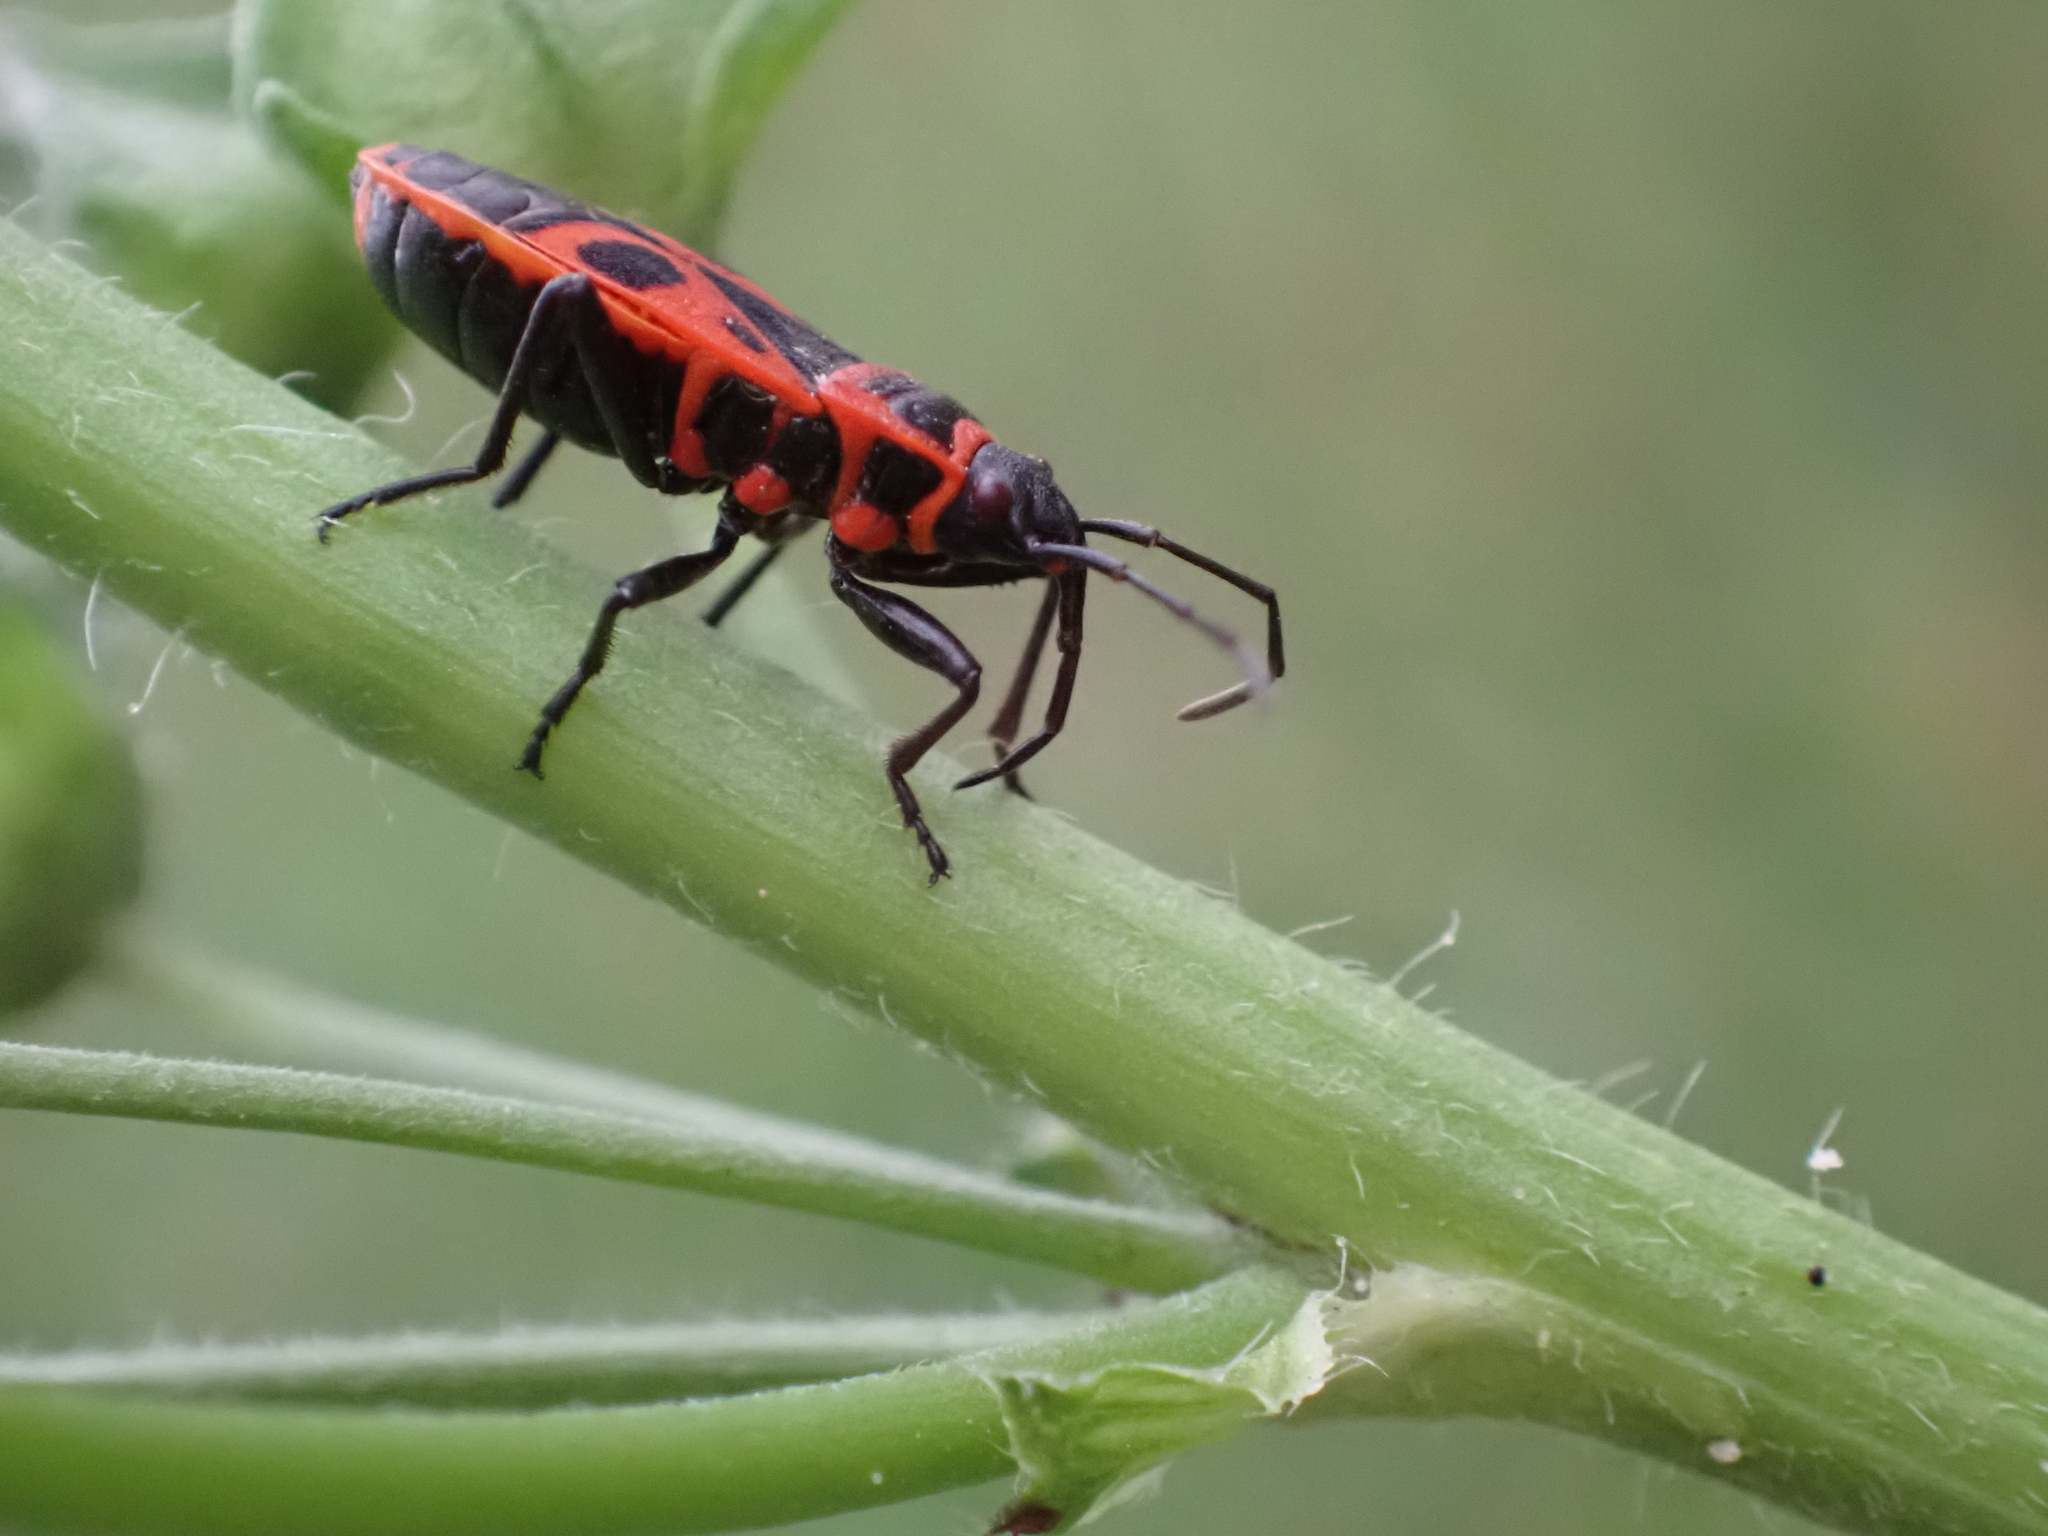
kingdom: Animalia
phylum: Arthropoda
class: Insecta
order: Hemiptera
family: Pyrrhocoridae
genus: Pyrrhocoris
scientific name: Pyrrhocoris apterus
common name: Firebug
